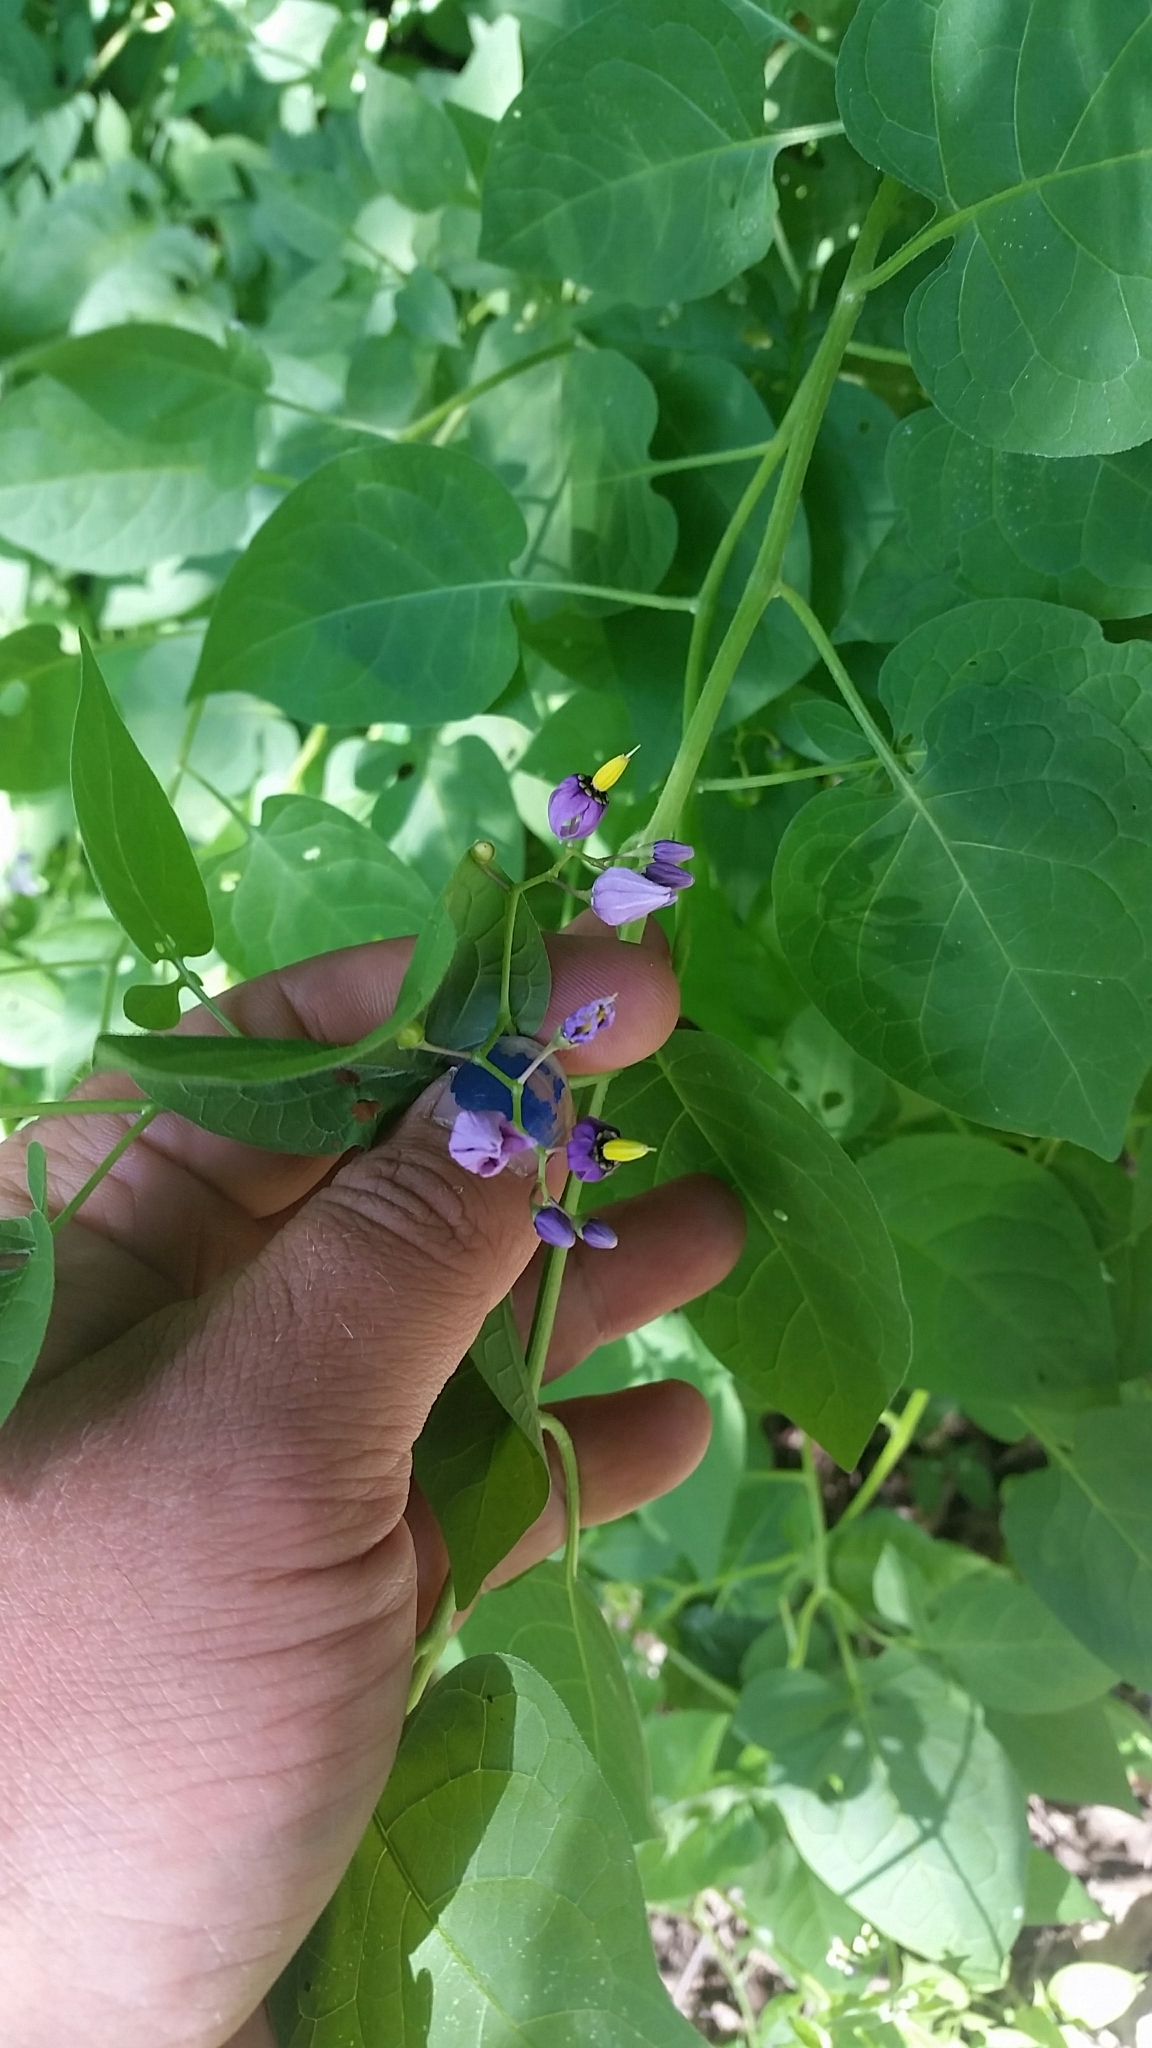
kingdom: Plantae
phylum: Tracheophyta
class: Magnoliopsida
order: Solanales
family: Solanaceae
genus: Solanum
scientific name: Solanum dulcamara
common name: Climbing nightshade
